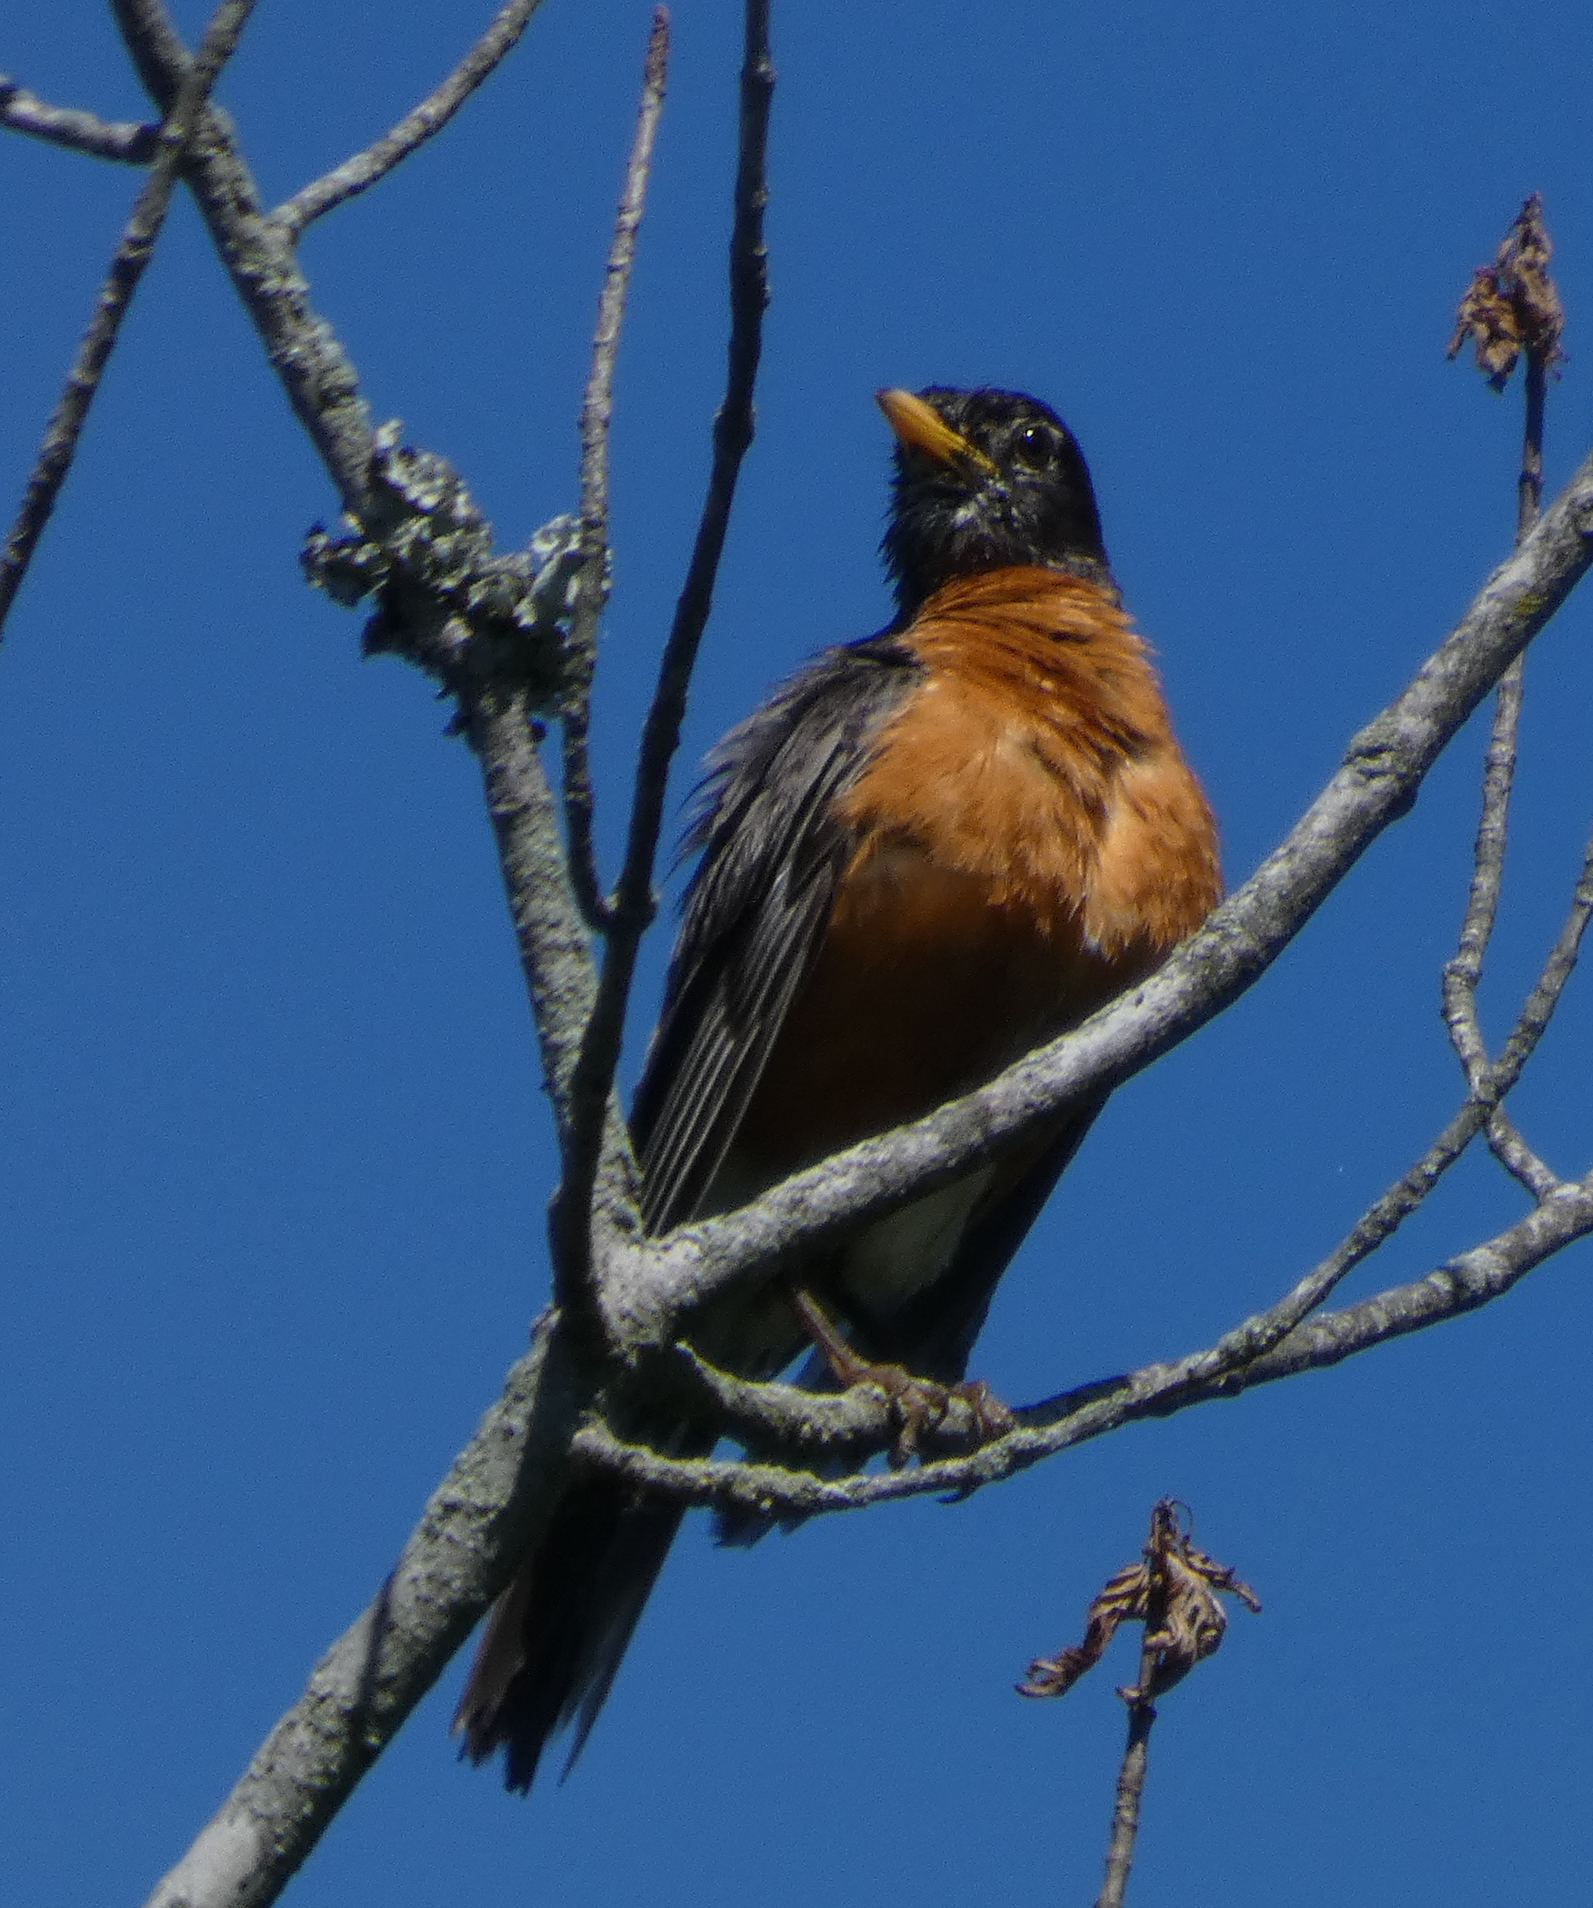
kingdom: Animalia
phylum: Chordata
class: Aves
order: Passeriformes
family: Turdidae
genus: Turdus
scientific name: Turdus migratorius
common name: American robin
